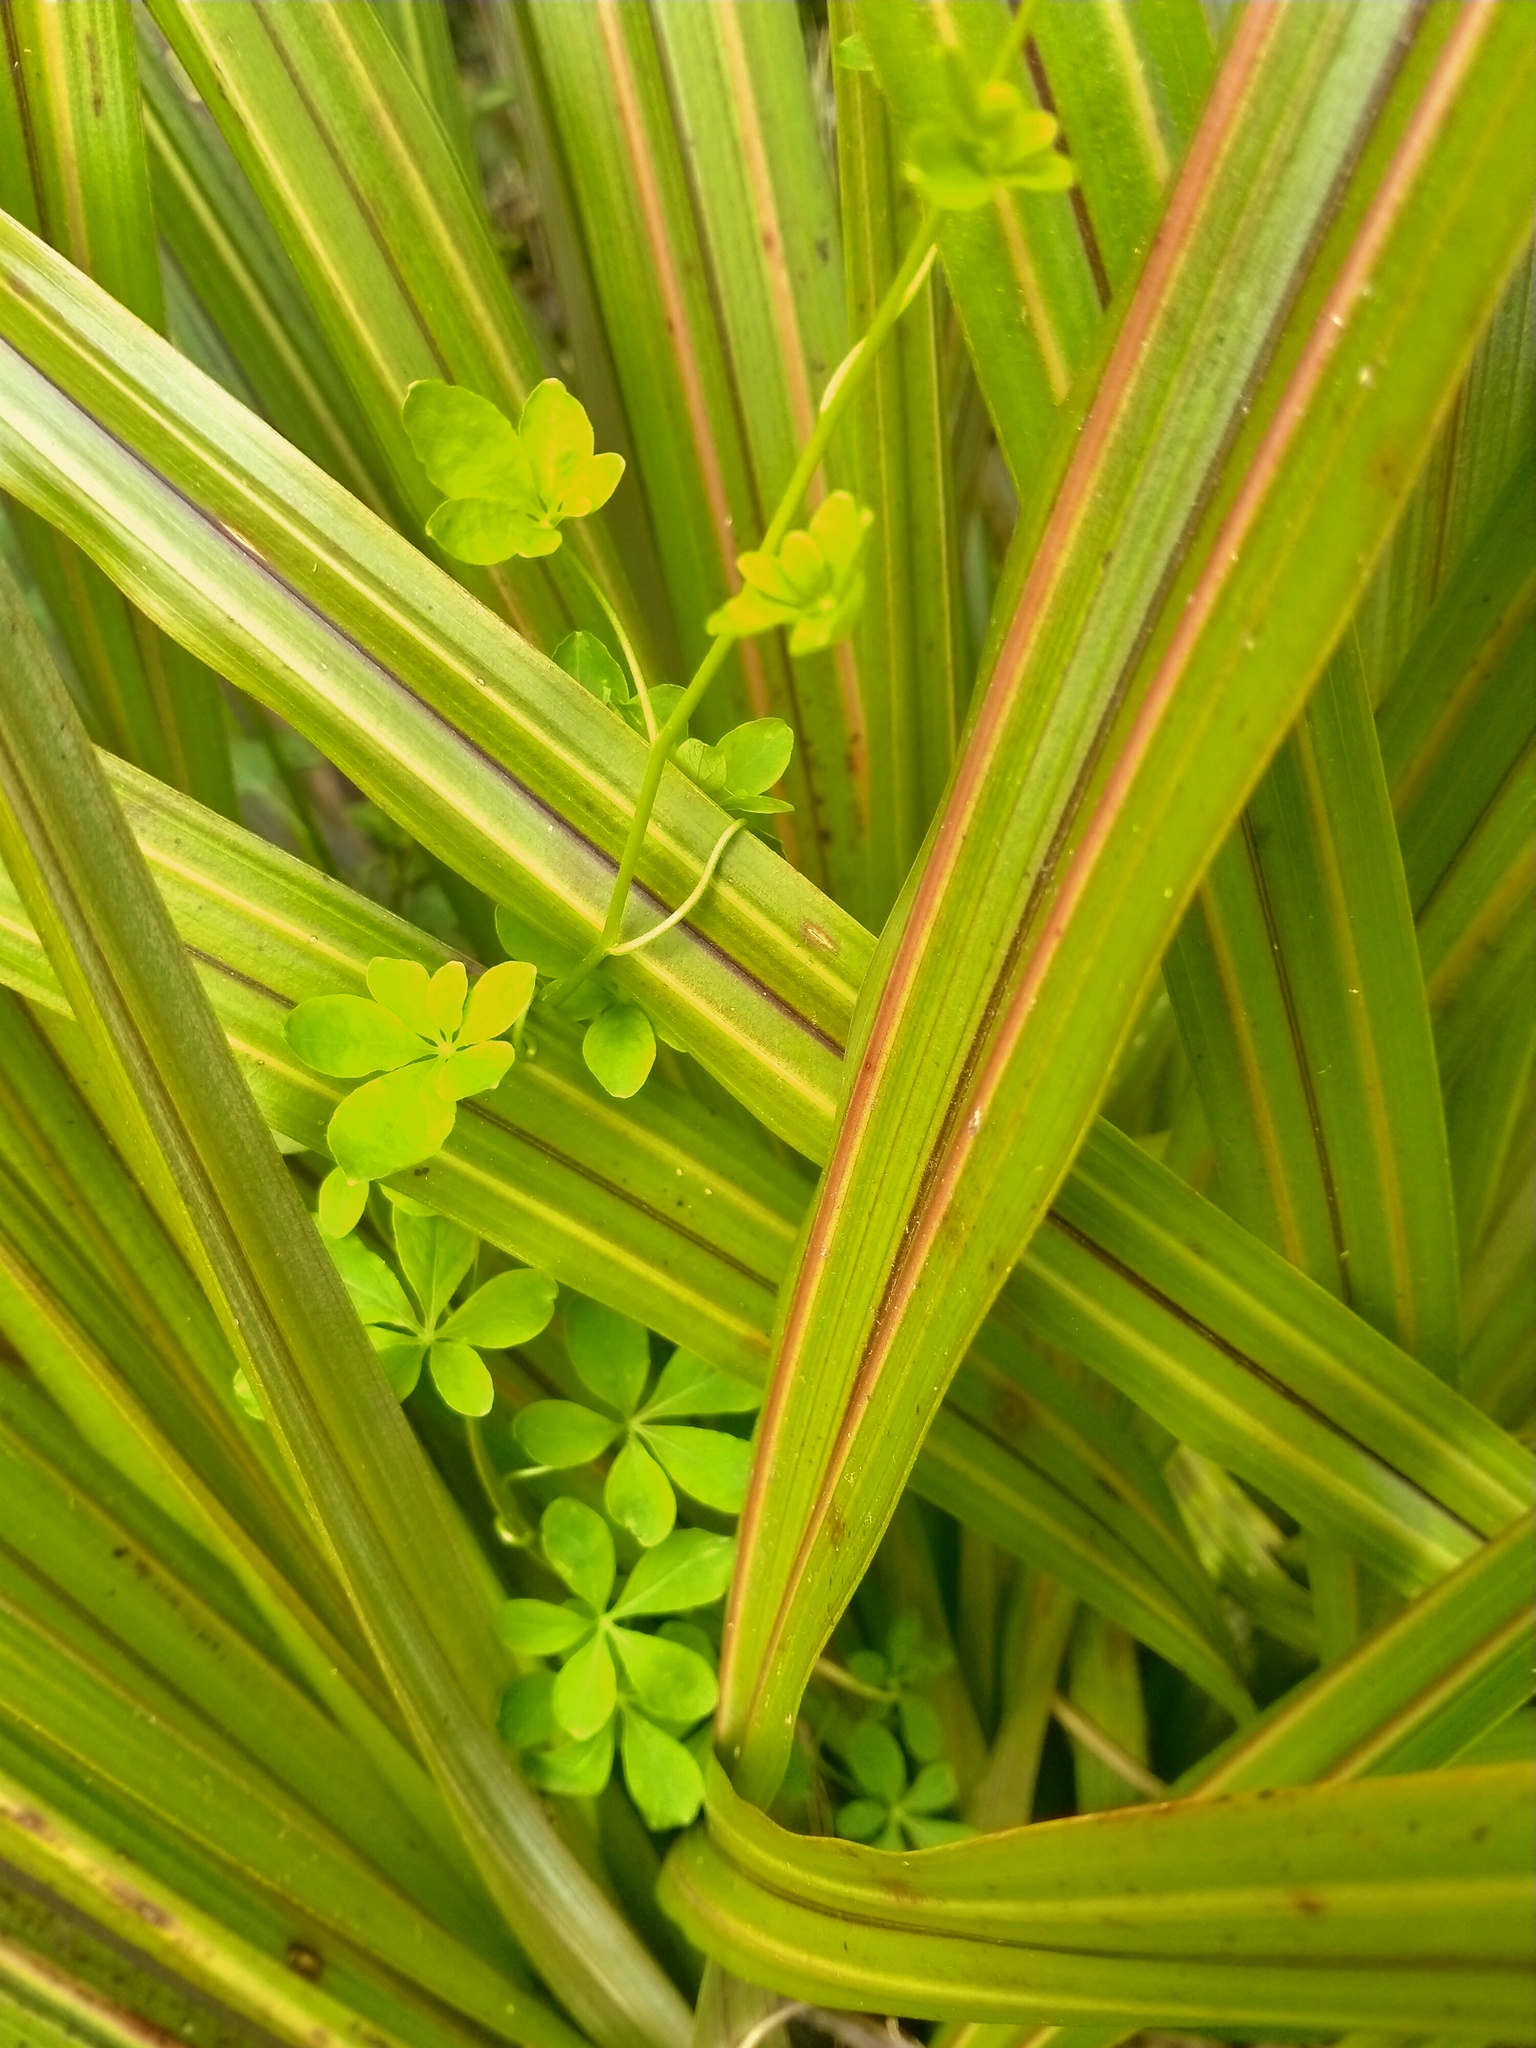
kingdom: Plantae
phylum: Tracheophyta
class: Magnoliopsida
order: Brassicales
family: Tropaeolaceae
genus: Tropaeolum
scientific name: Tropaeolum speciosum
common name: Flame nasturtium
